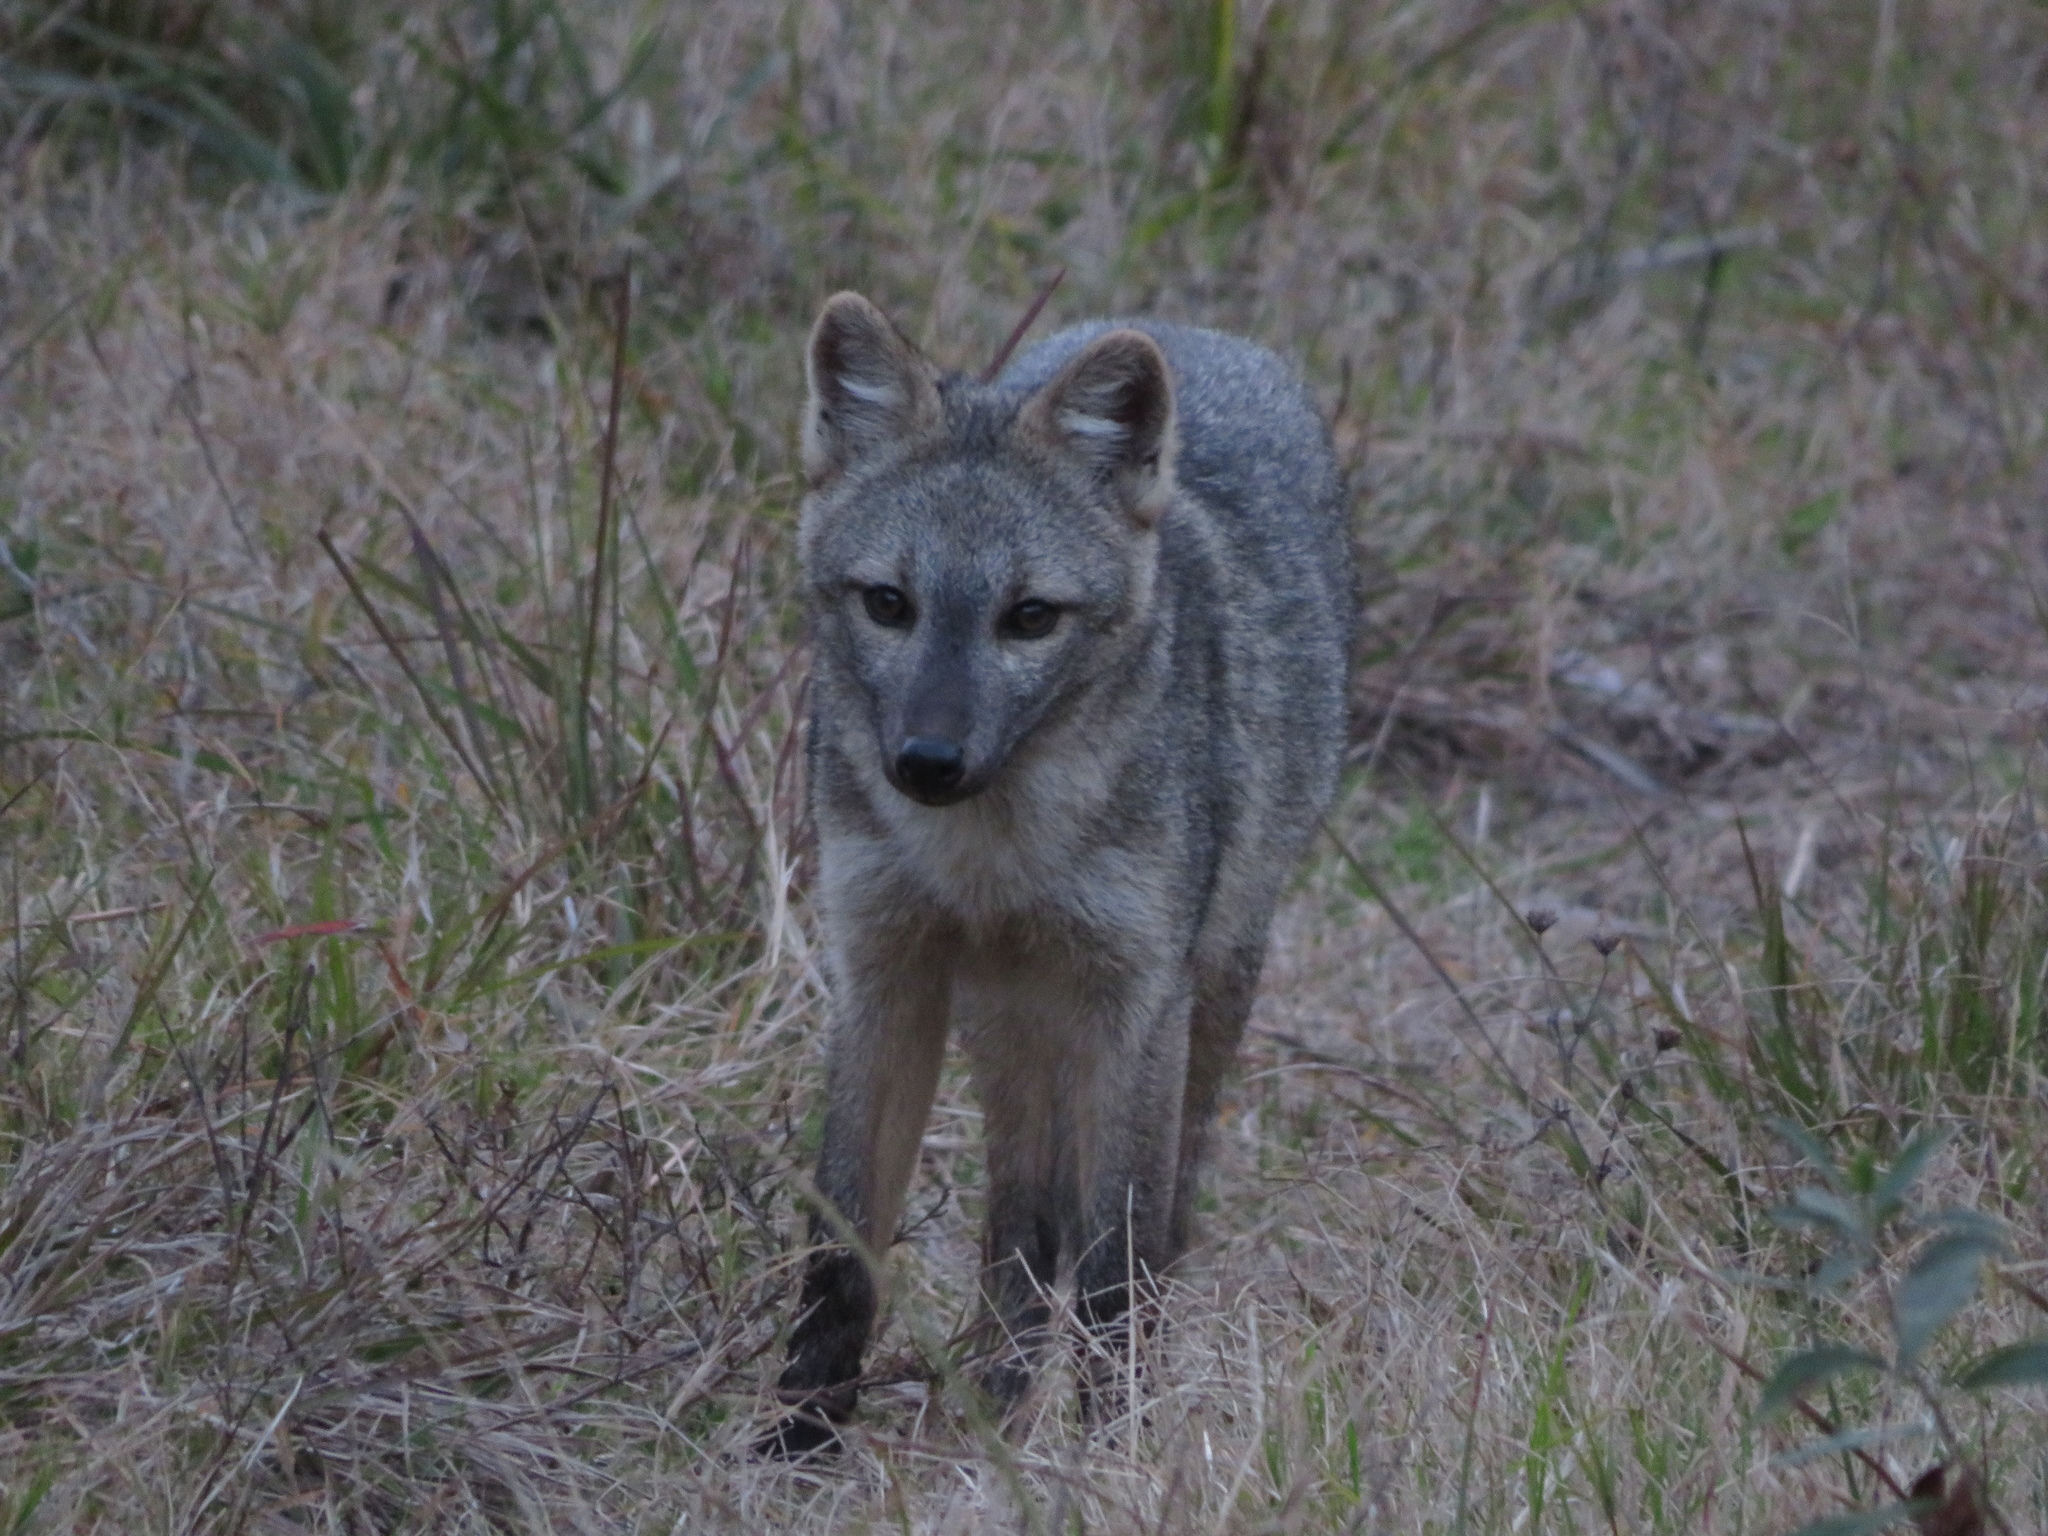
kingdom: Animalia
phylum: Chordata
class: Mammalia
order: Carnivora
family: Canidae
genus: Cerdocyon
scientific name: Cerdocyon thous
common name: Crab-eating fox
